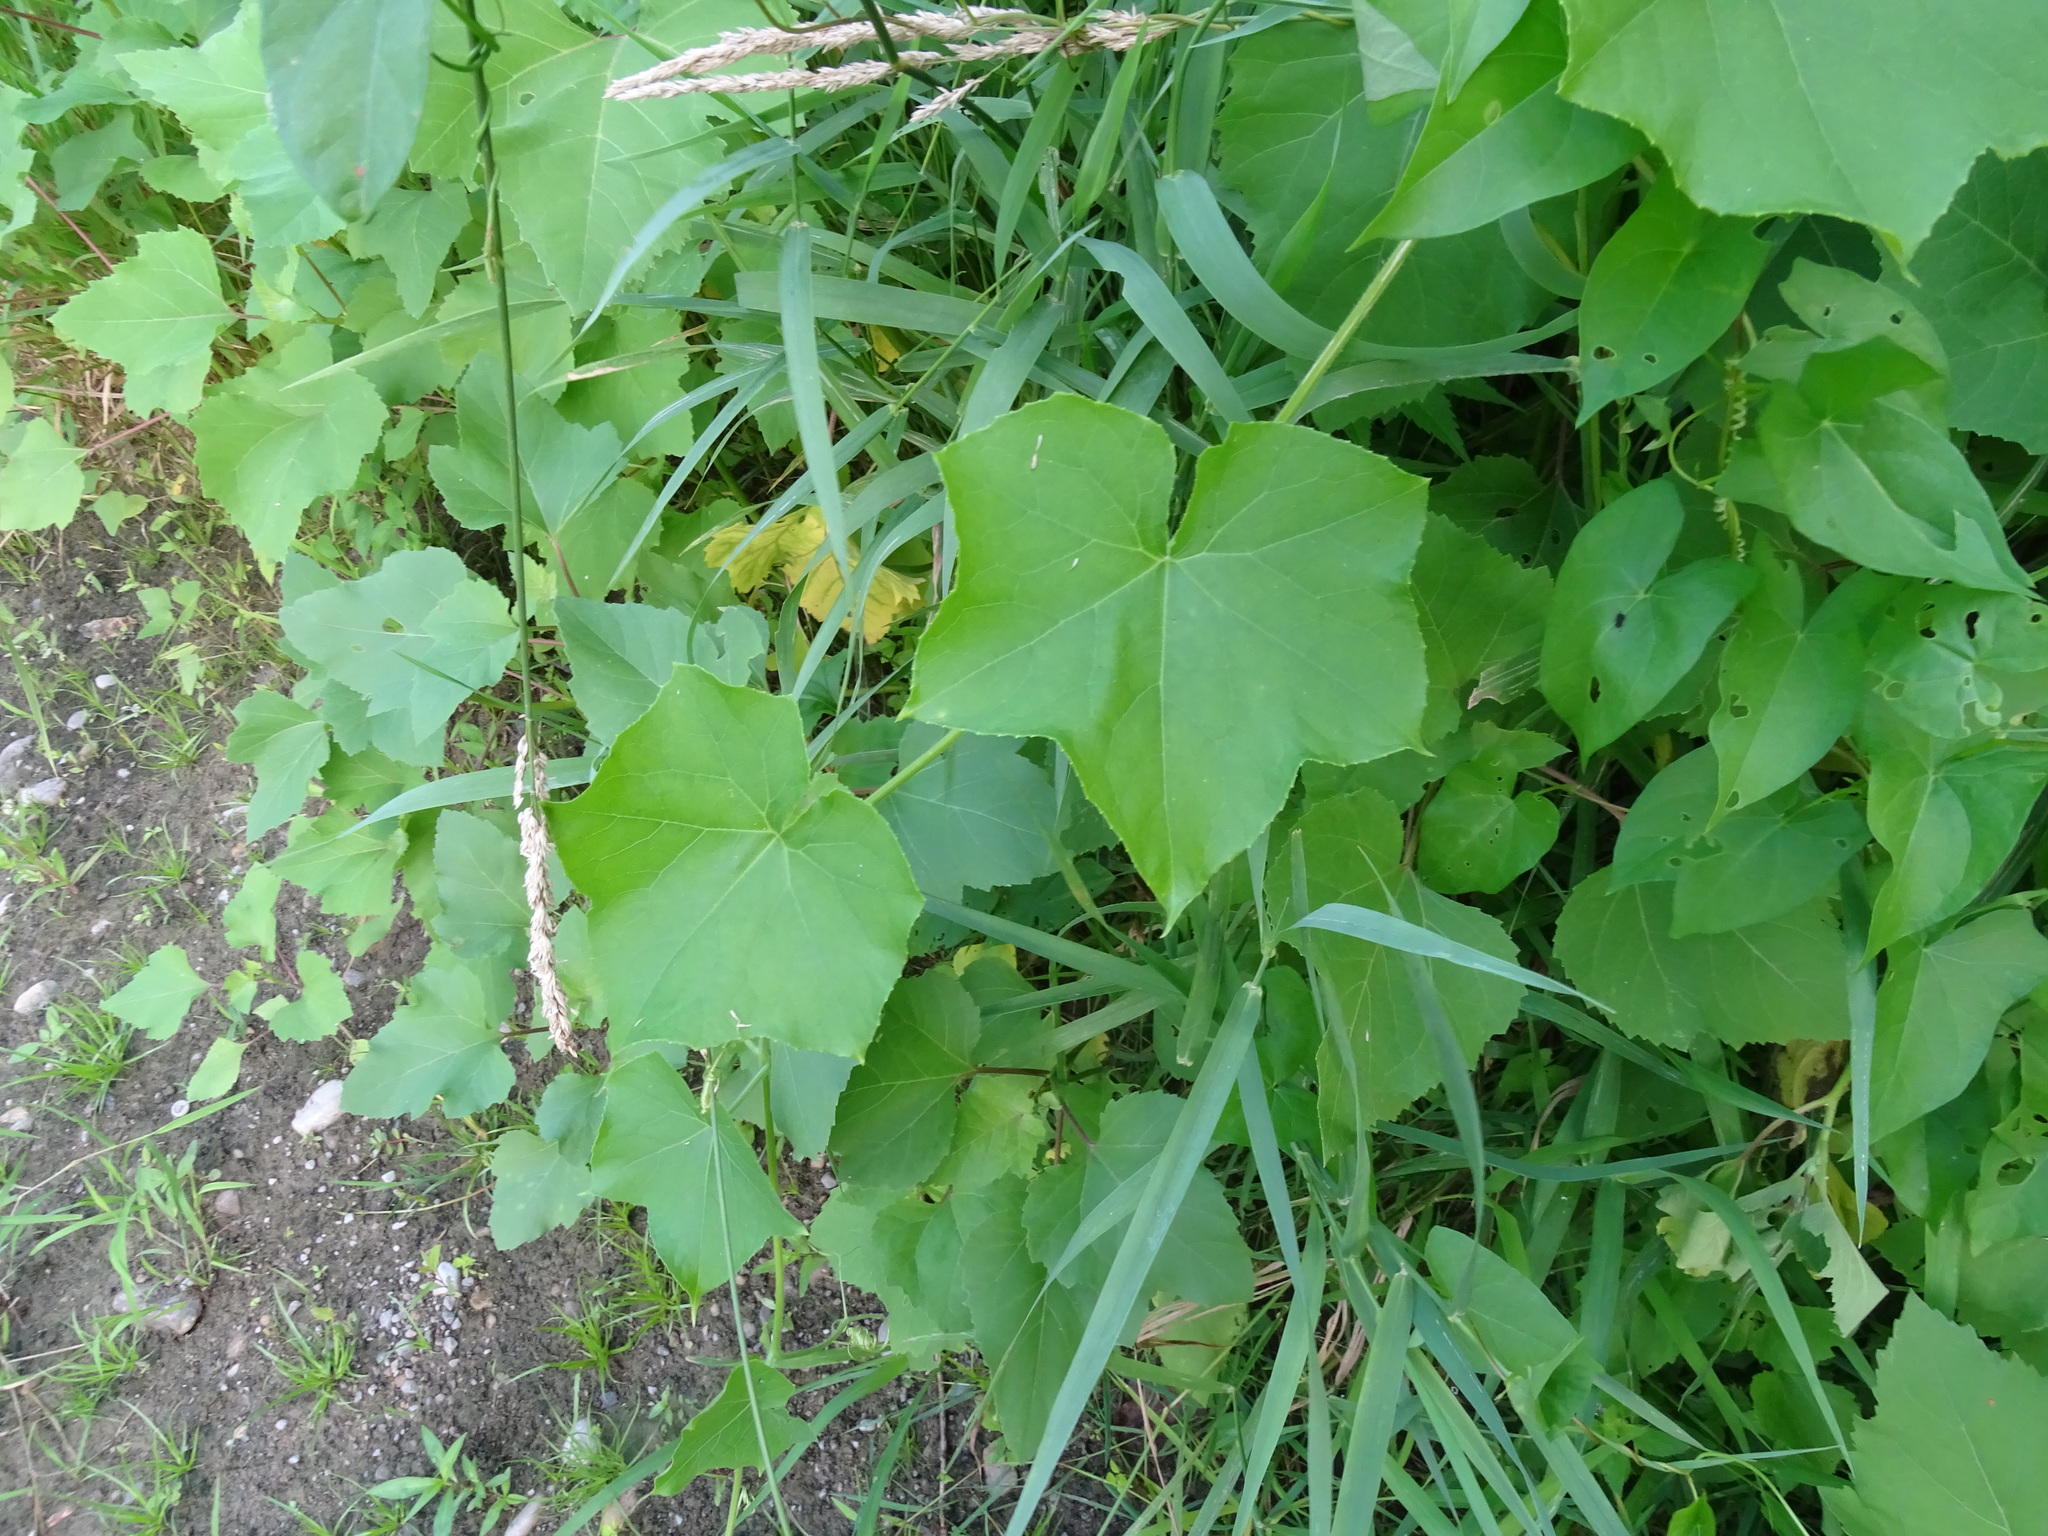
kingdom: Plantae
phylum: Tracheophyta
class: Magnoliopsida
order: Cucurbitales
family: Cucurbitaceae
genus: Sicyos
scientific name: Sicyos angulatus
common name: Angled burr cucumber
